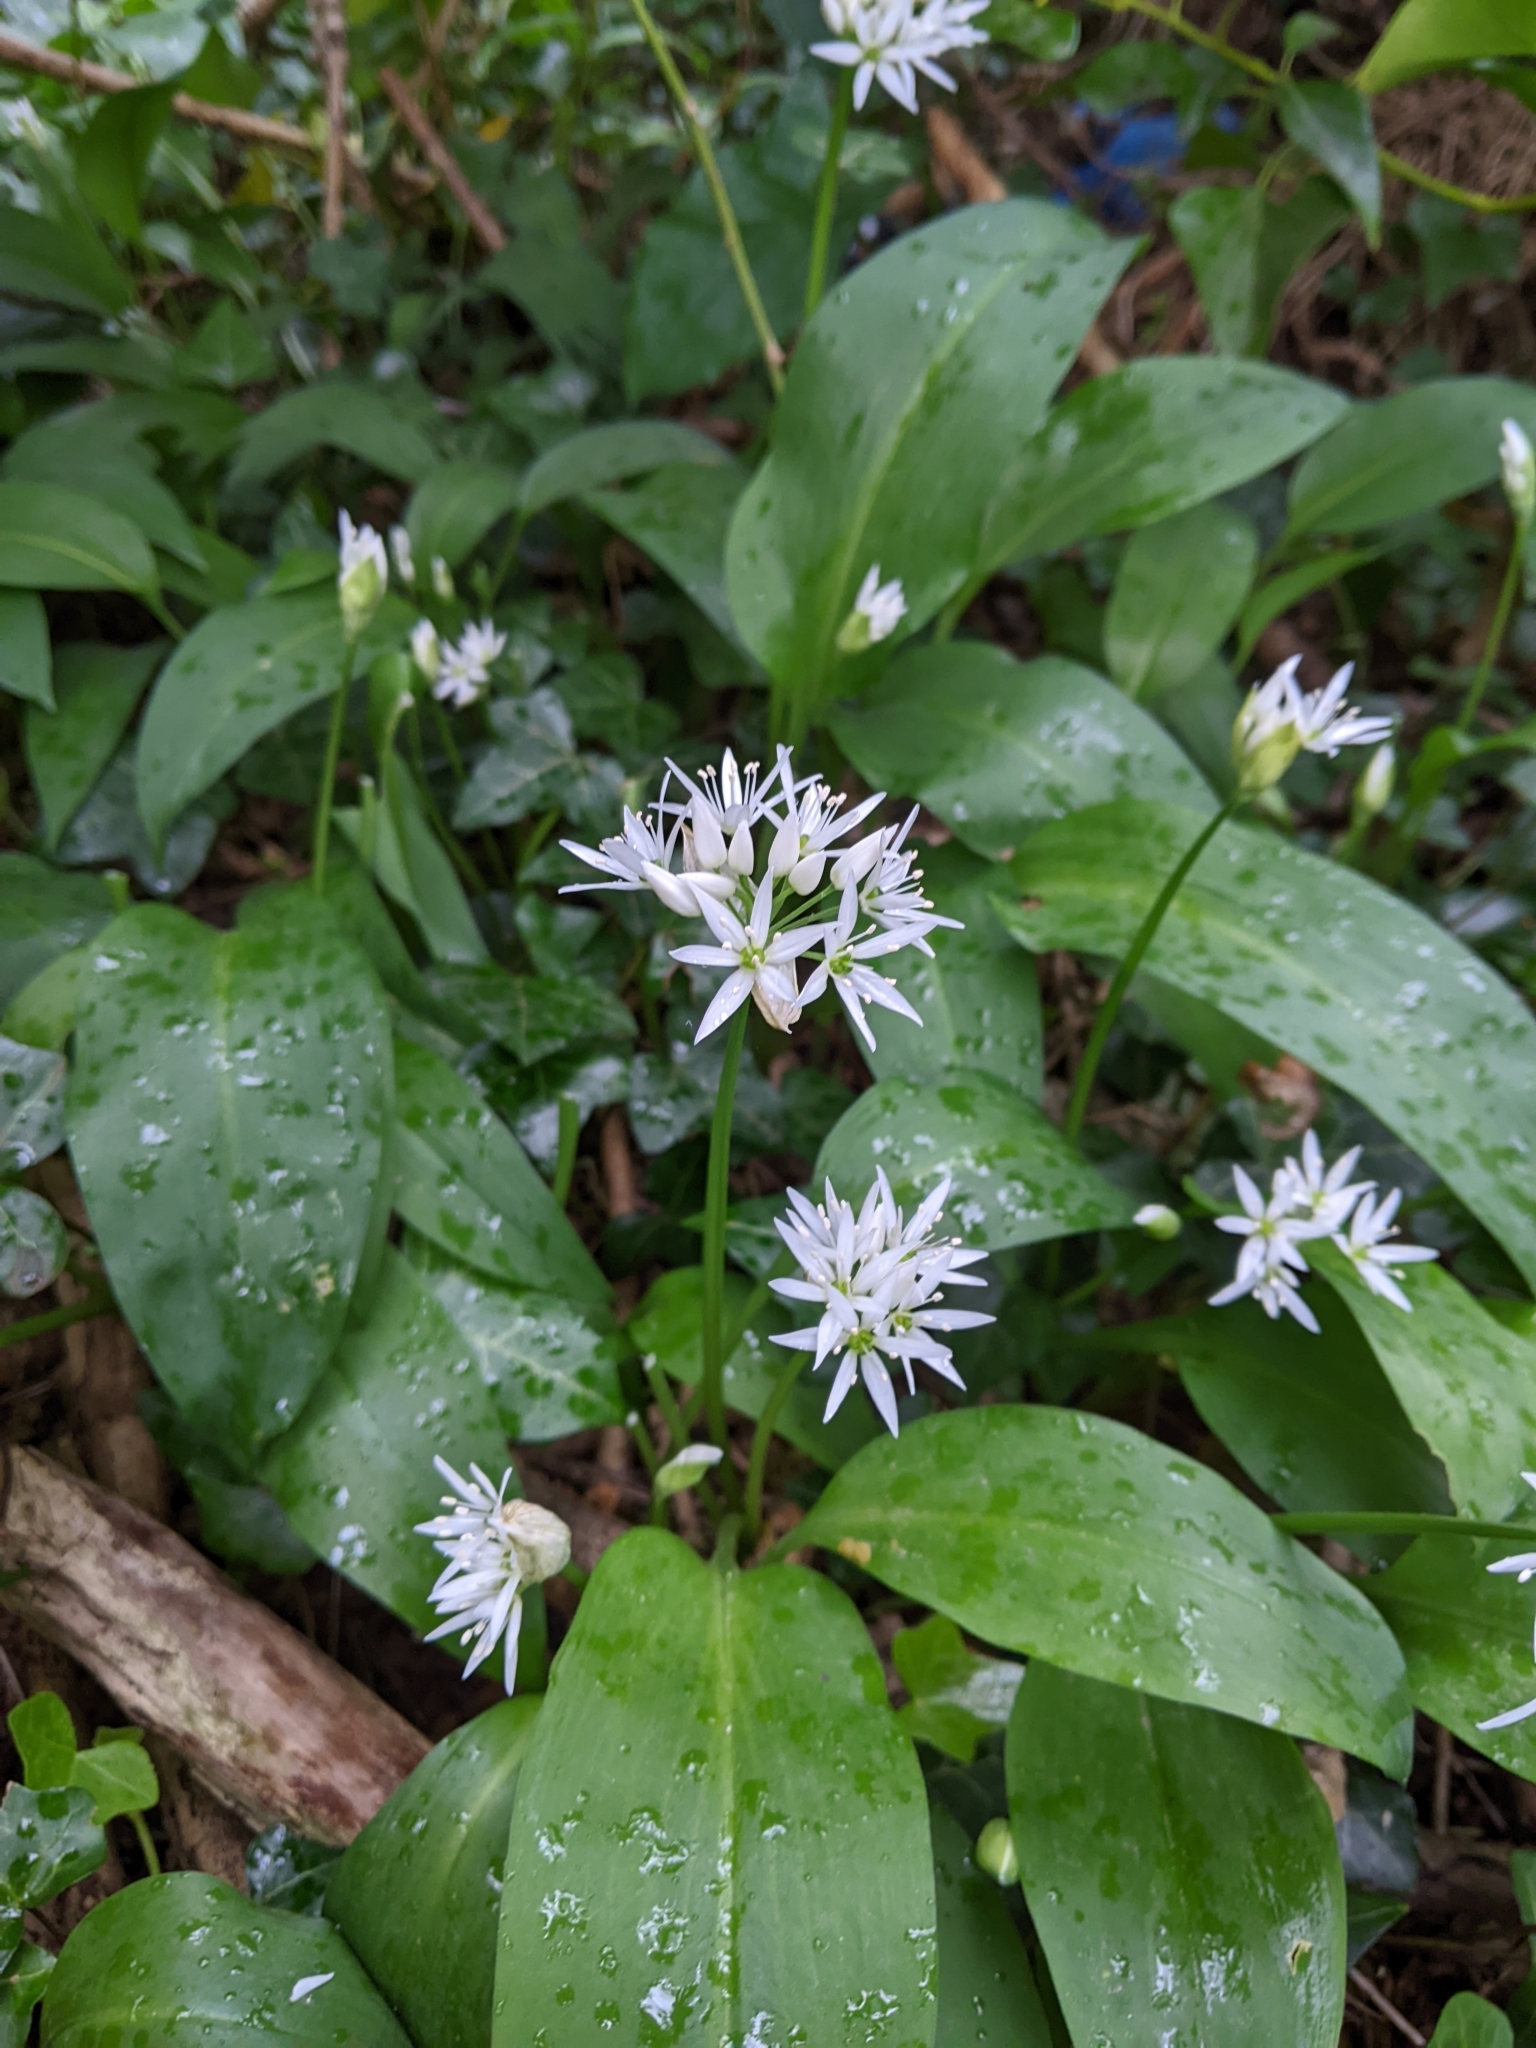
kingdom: Plantae
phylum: Tracheophyta
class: Liliopsida
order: Asparagales
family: Amaryllidaceae
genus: Allium
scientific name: Allium ursinum
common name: Ramsons
